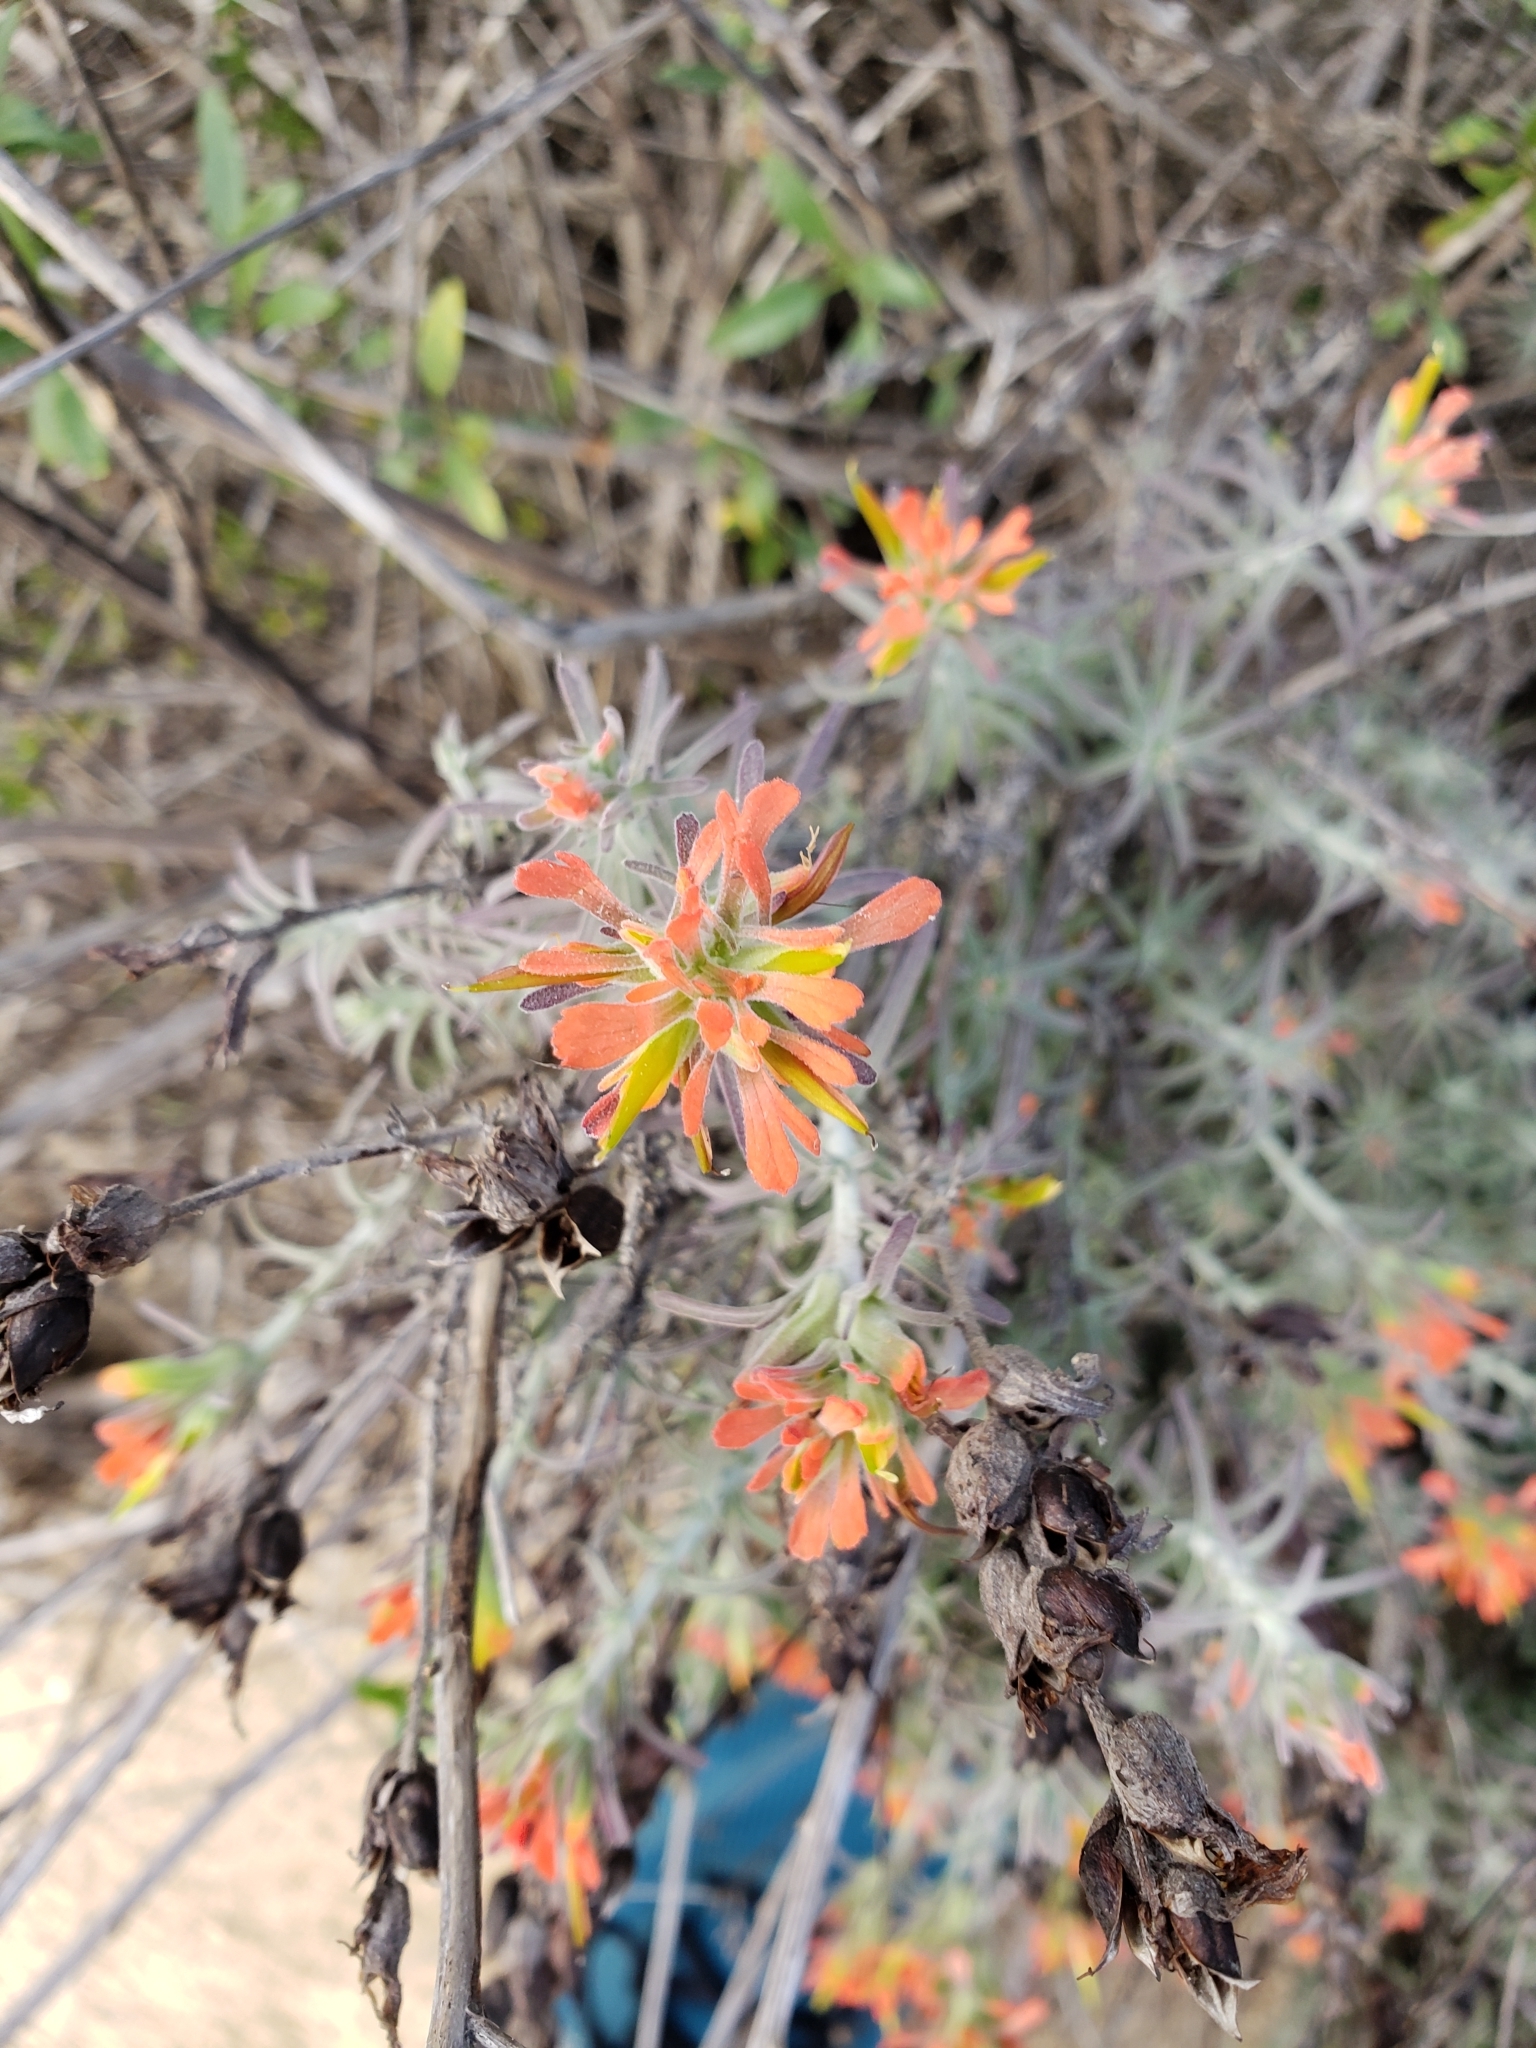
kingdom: Plantae
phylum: Tracheophyta
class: Magnoliopsida
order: Lamiales
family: Orobanchaceae
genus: Castilleja
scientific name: Castilleja foliolosa
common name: Woolly indian paintbrush
